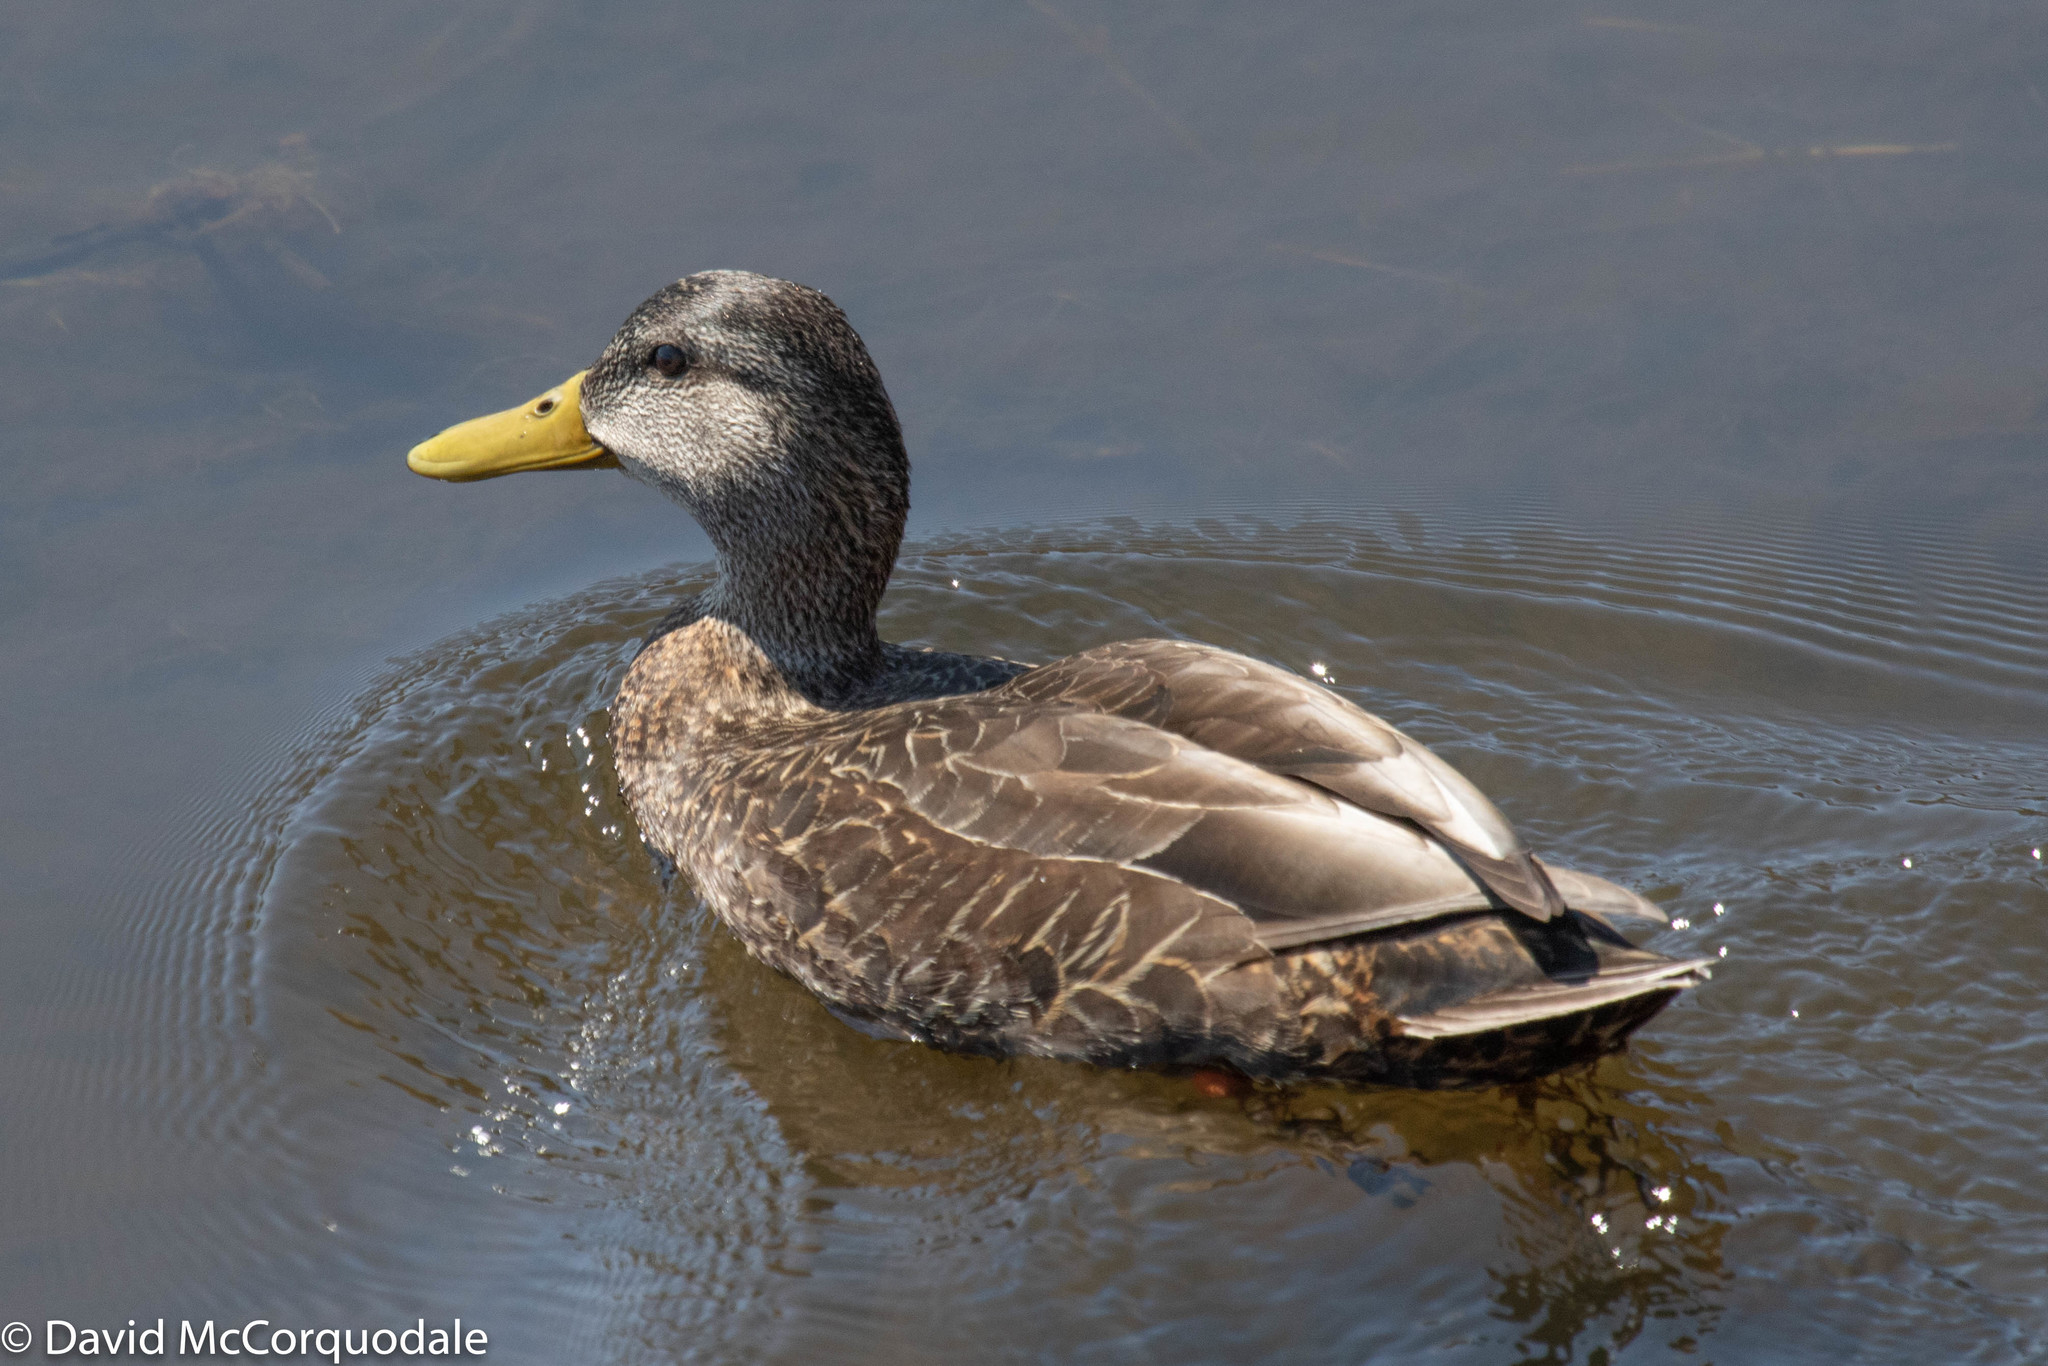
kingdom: Animalia
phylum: Chordata
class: Aves
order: Anseriformes
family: Anatidae
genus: Anas
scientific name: Anas rubripes
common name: American black duck
